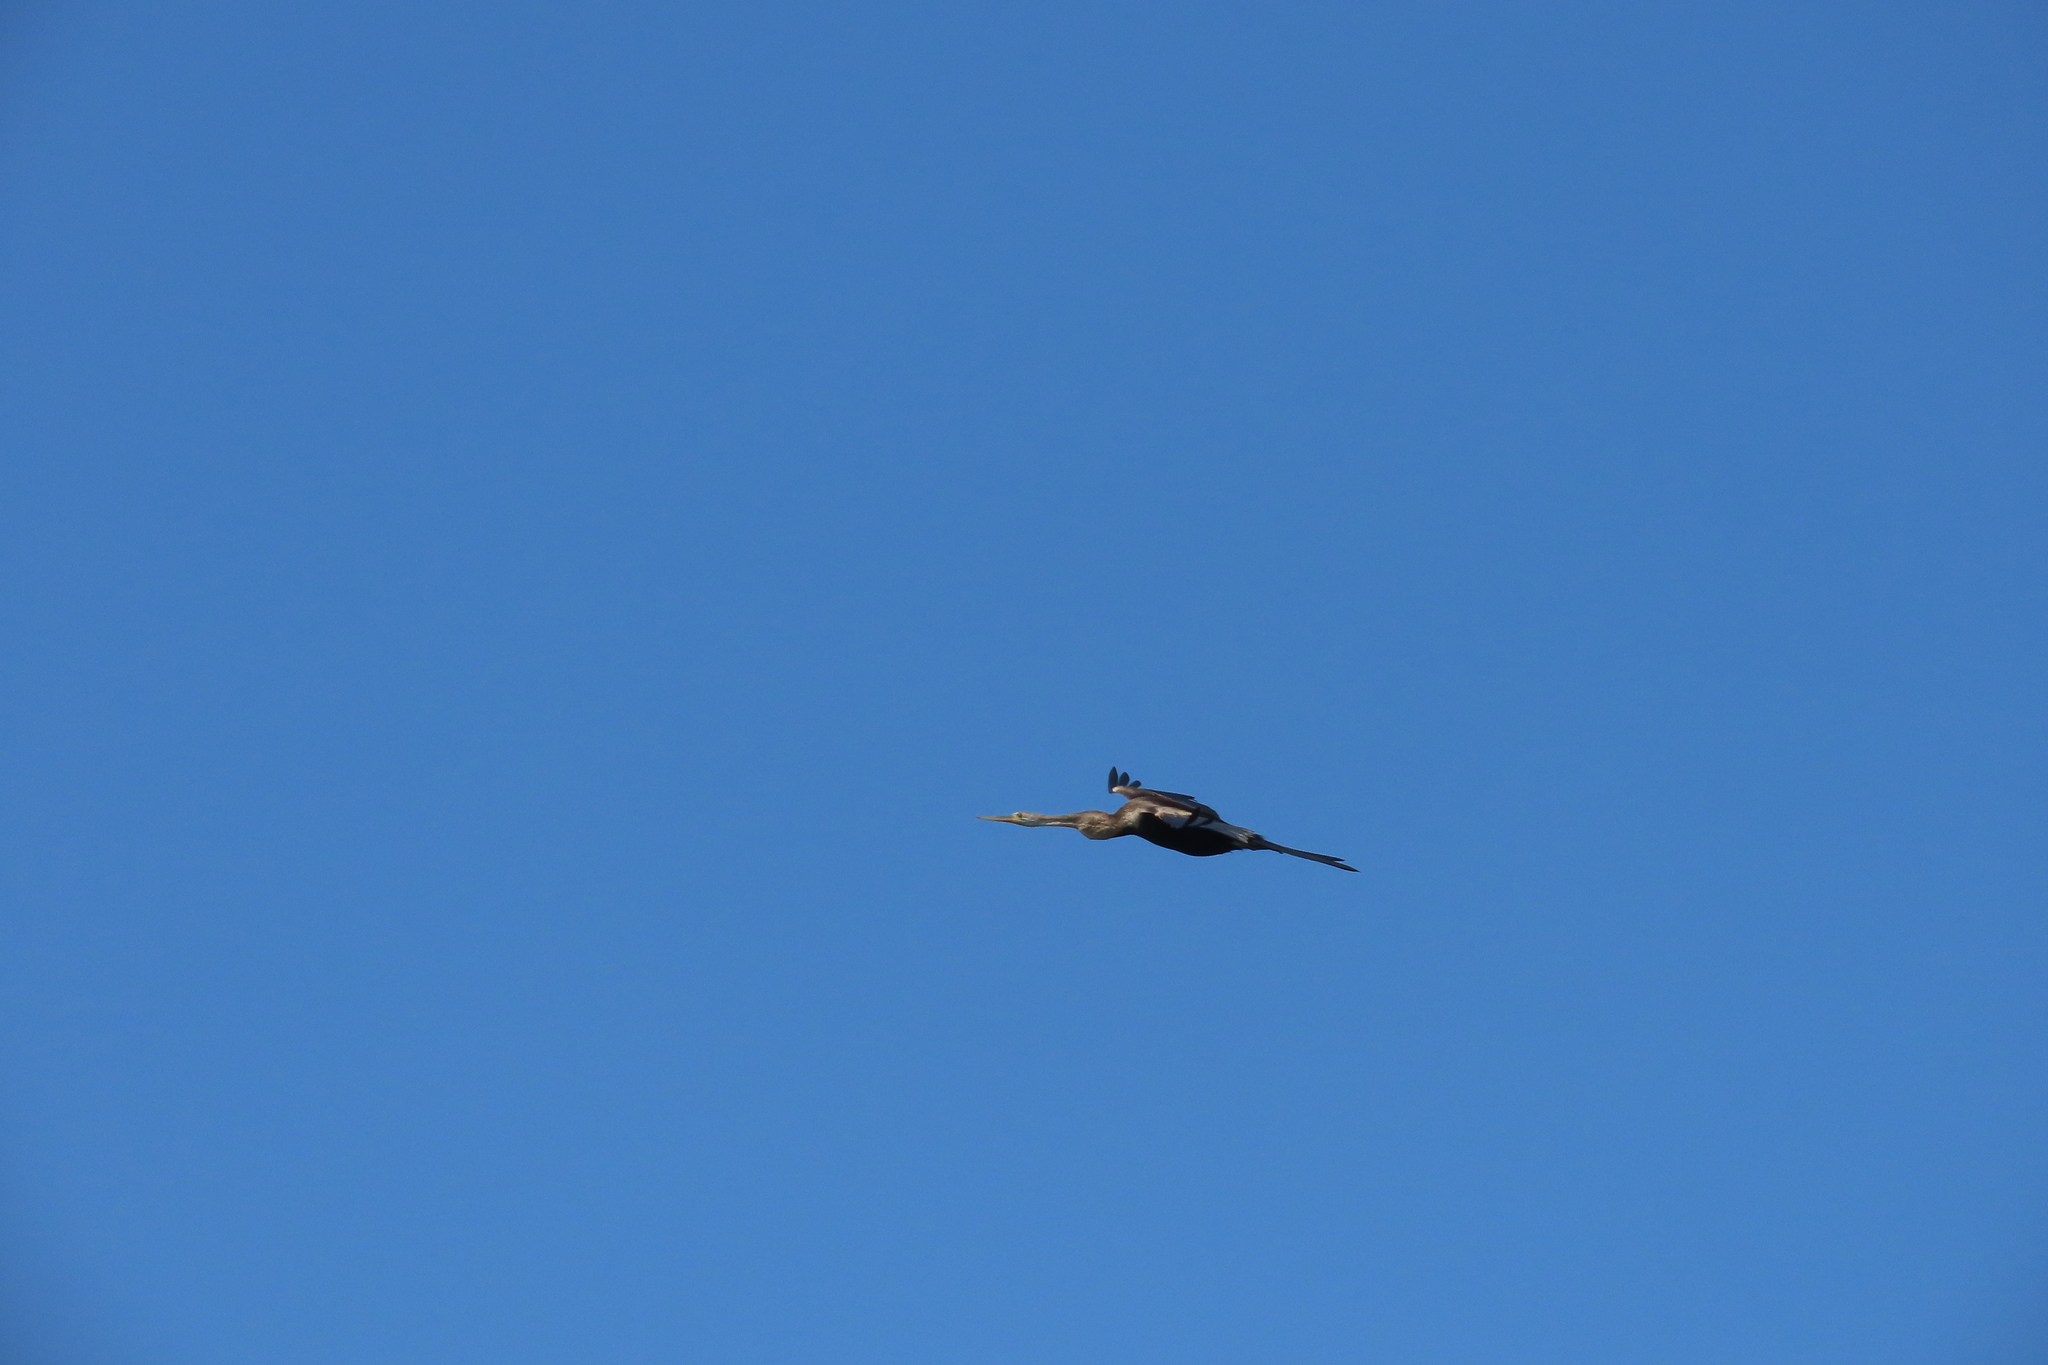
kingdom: Animalia
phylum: Chordata
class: Aves
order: Suliformes
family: Anhingidae
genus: Anhinga
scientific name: Anhinga melanogaster
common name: Oriental darter
